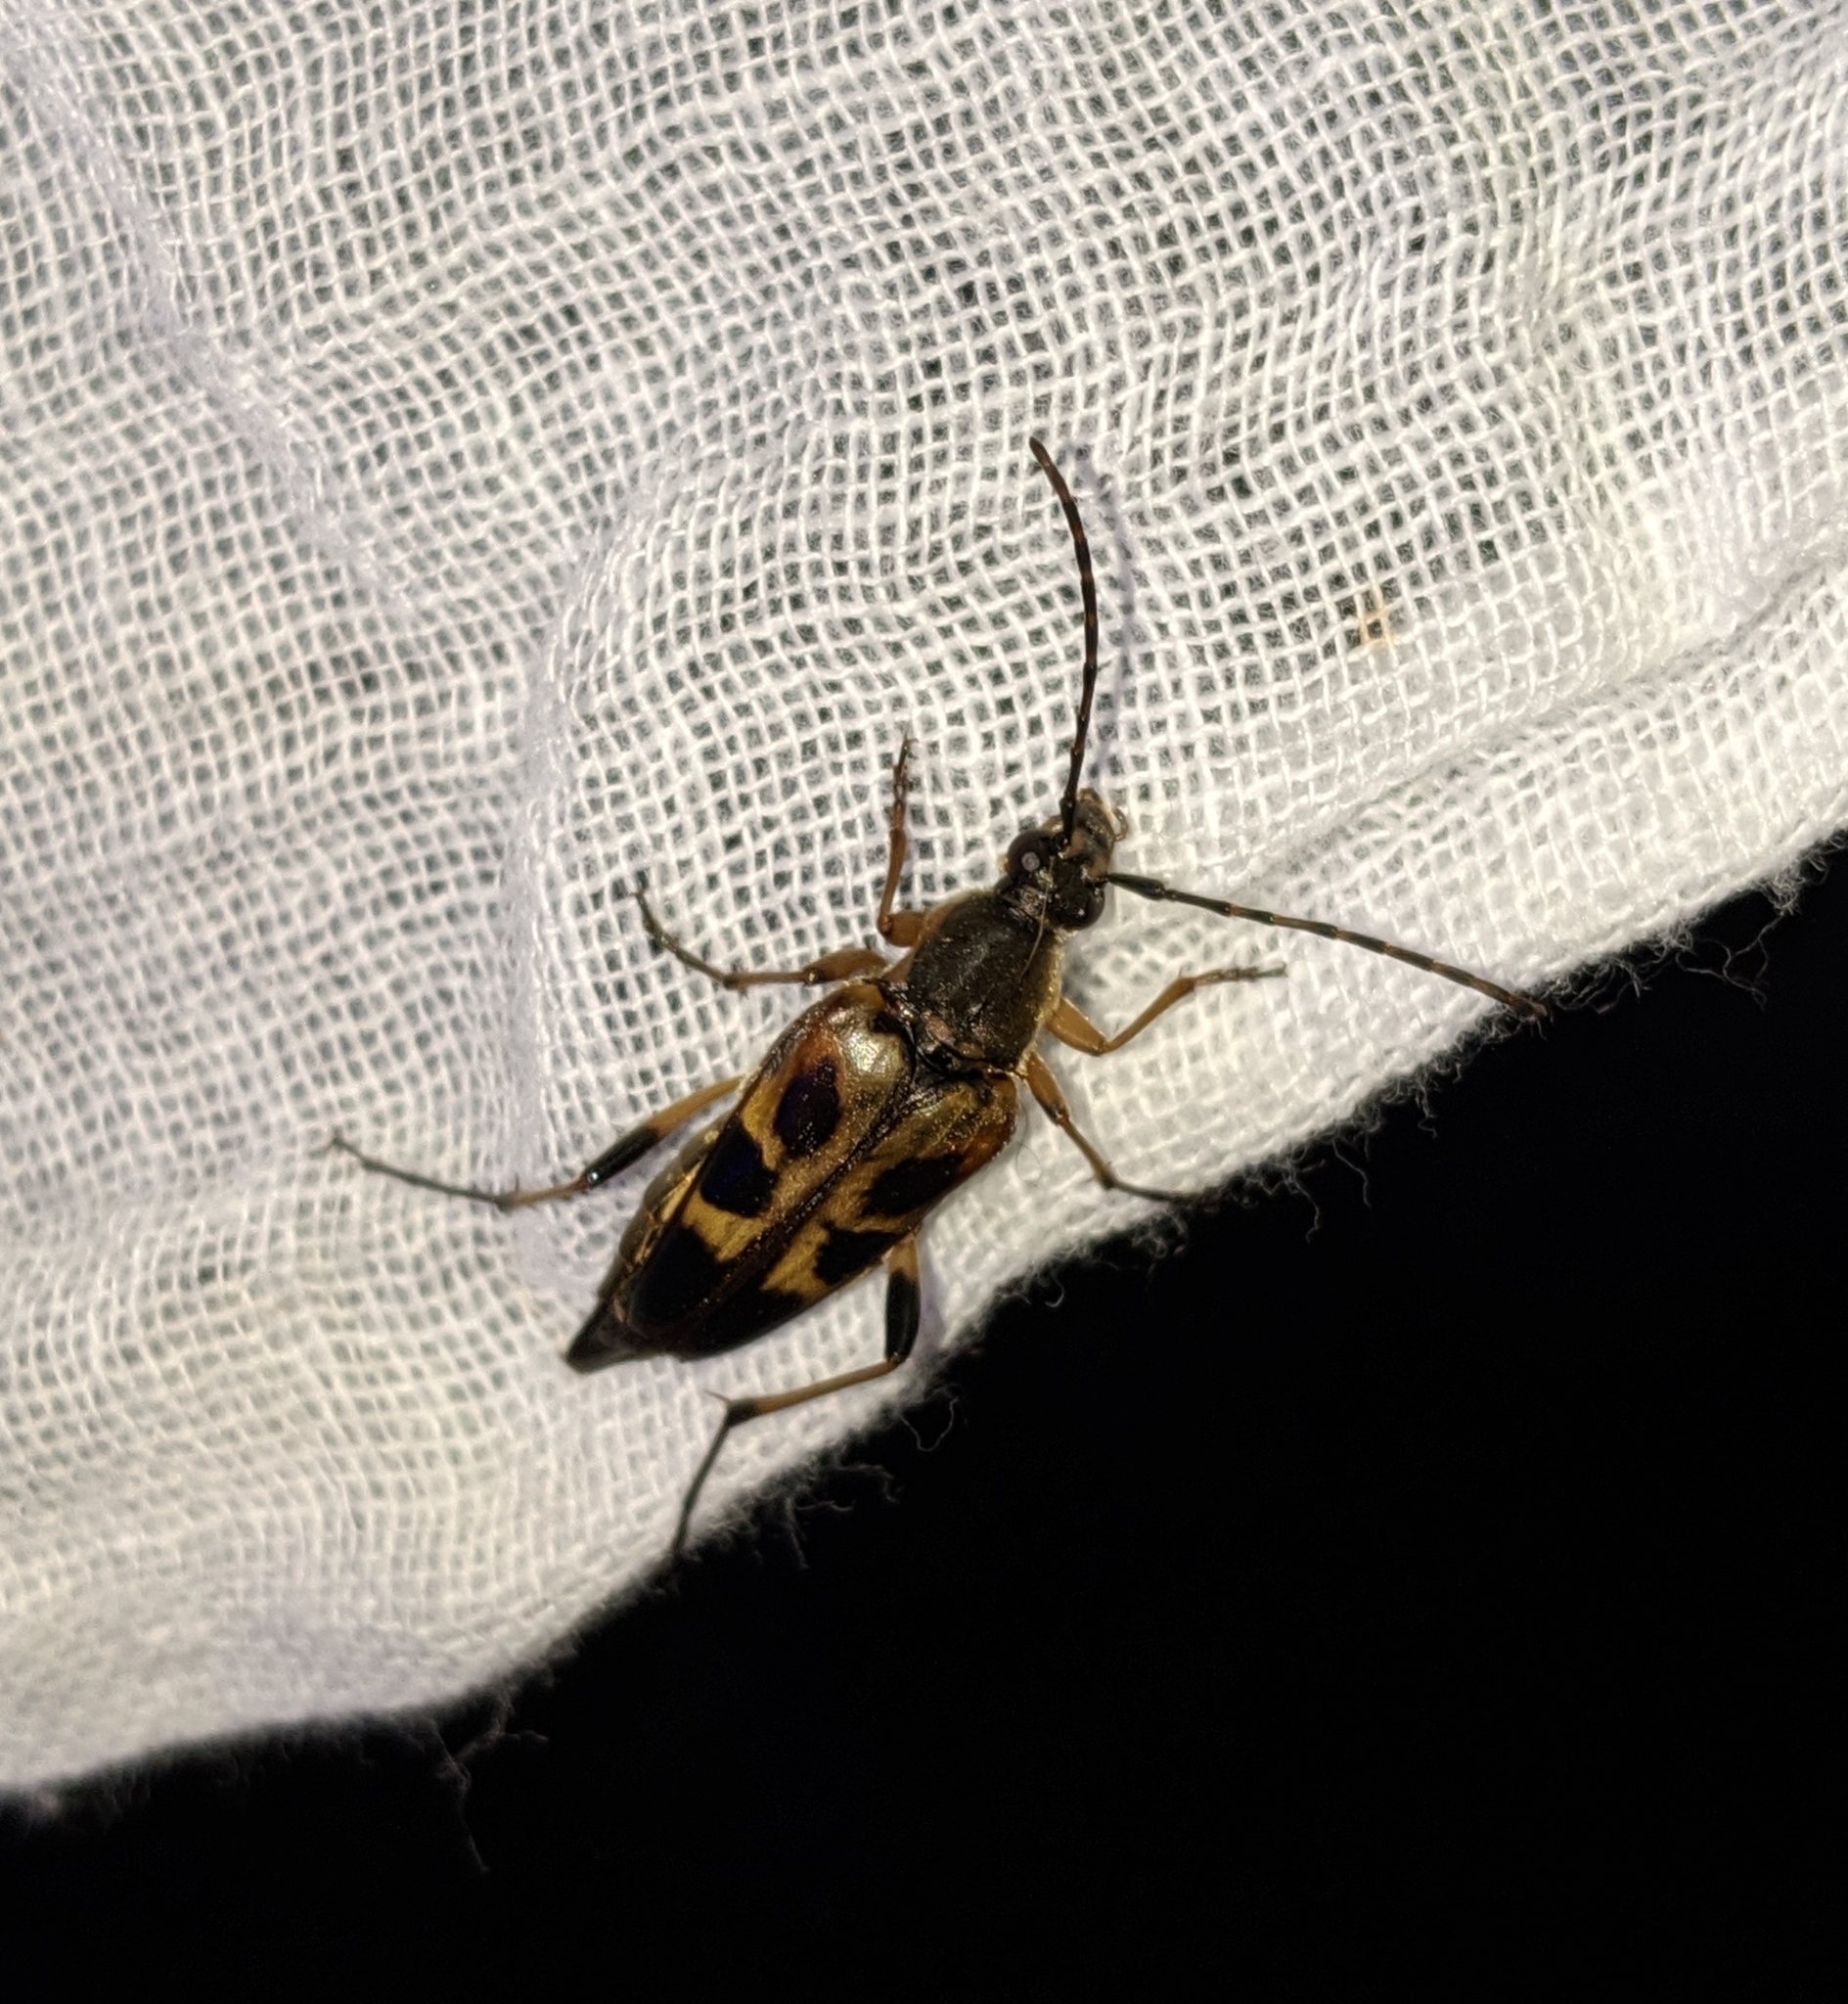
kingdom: Animalia
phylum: Arthropoda
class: Insecta
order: Coleoptera
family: Cerambycidae
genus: Etorofus
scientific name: Etorofus obliteratus
